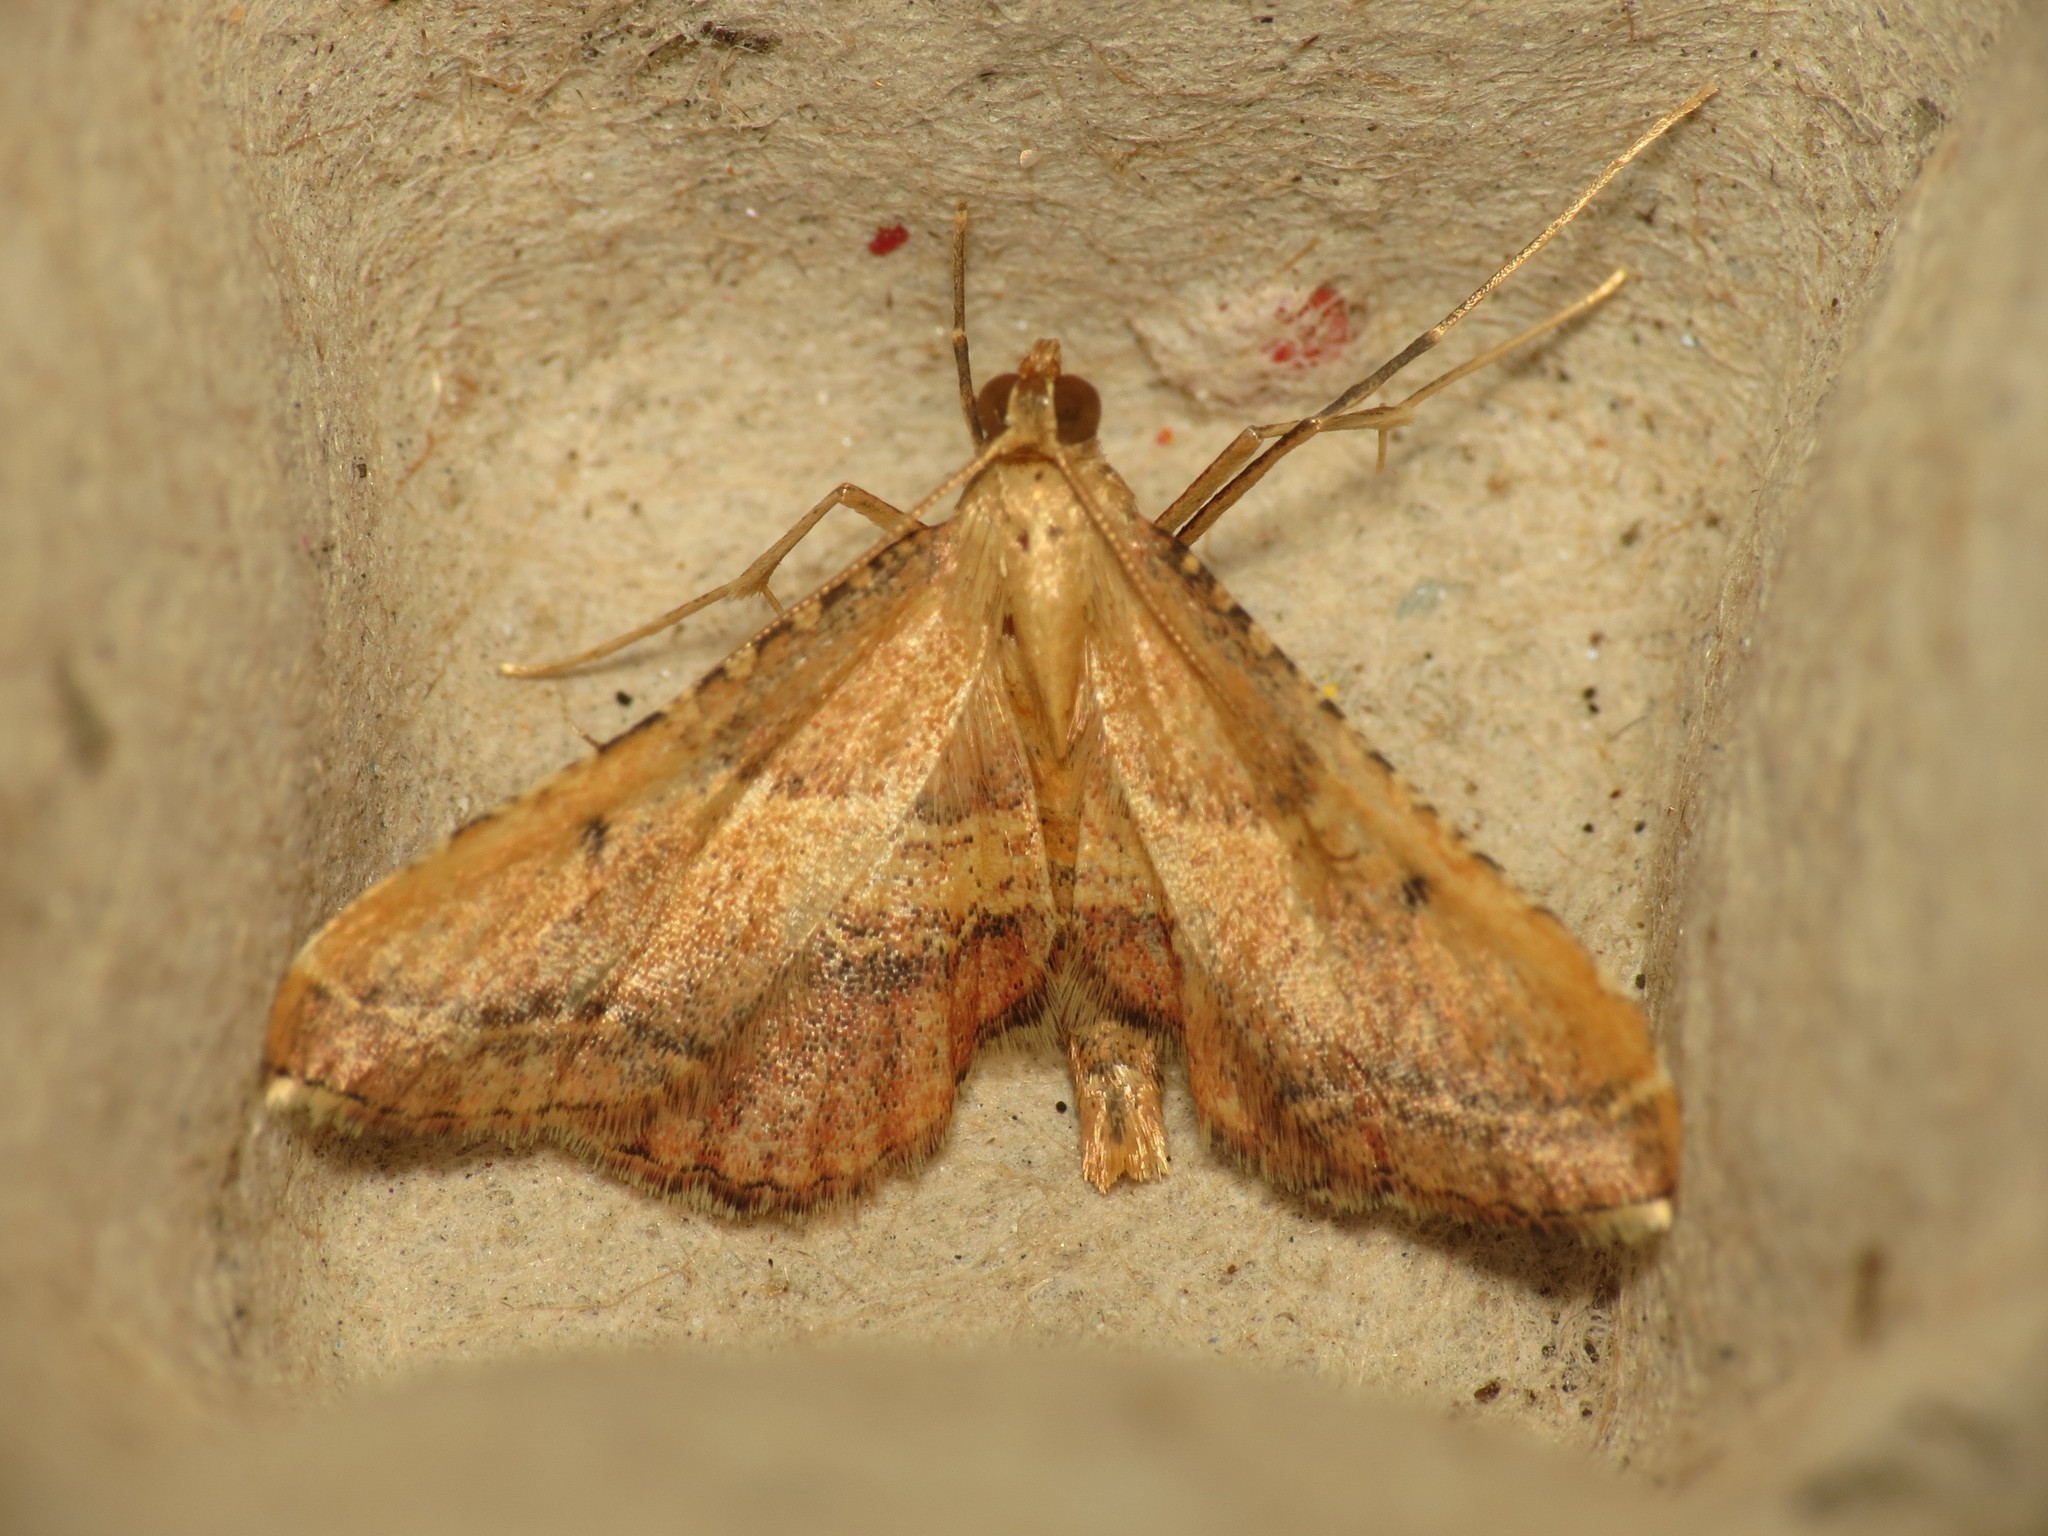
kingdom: Animalia
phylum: Arthropoda
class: Insecta
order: Lepidoptera
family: Pyralidae
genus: Endotricha
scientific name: Endotricha flammealis
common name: Rosy tabby
